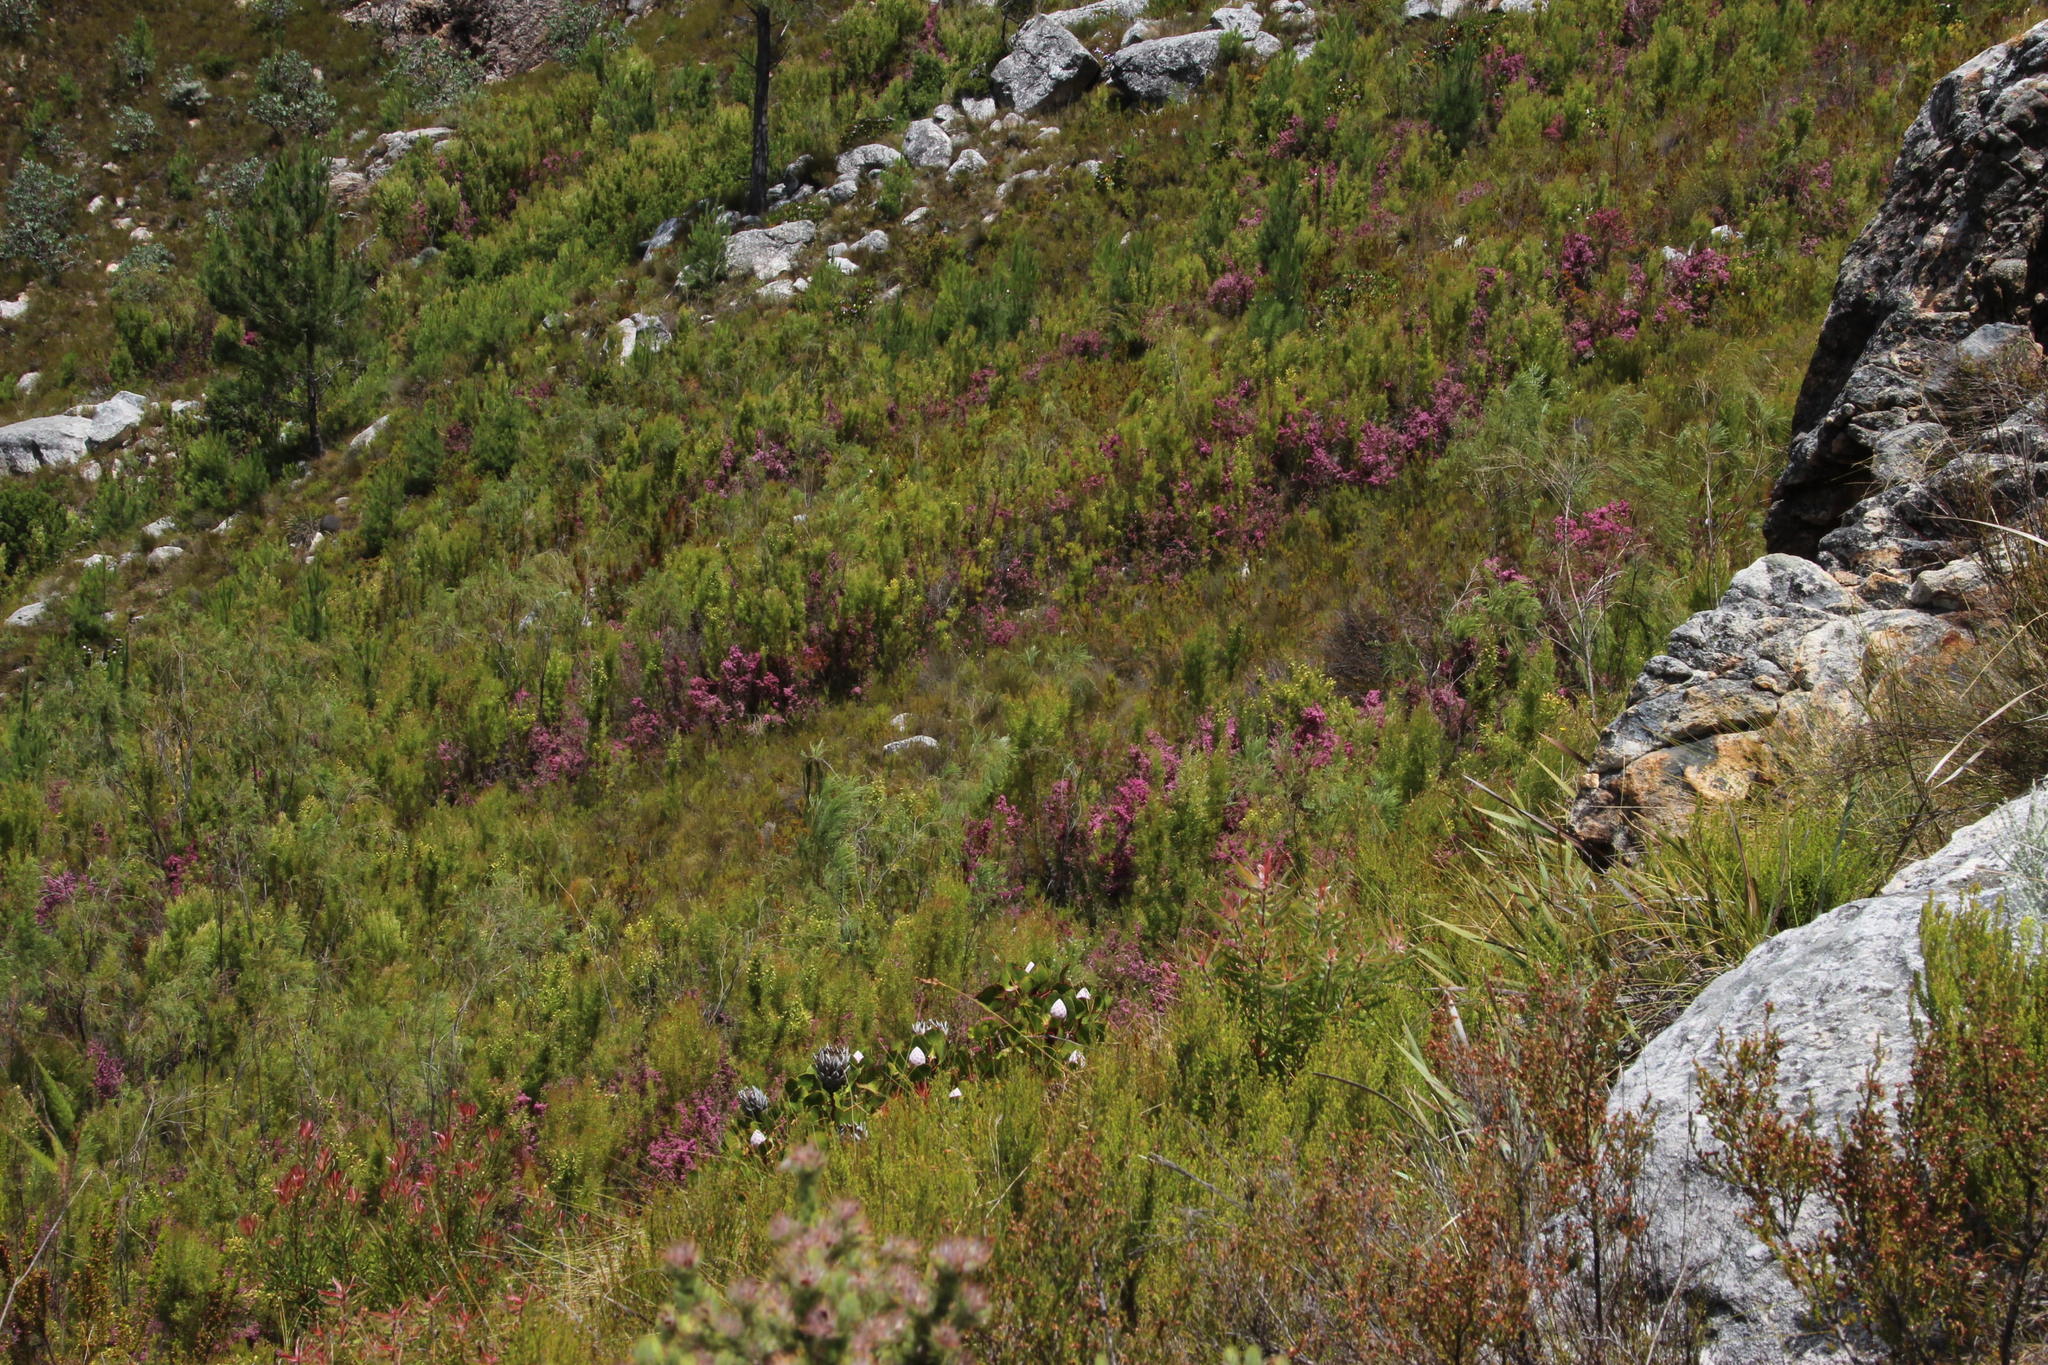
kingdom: Plantae
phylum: Tracheophyta
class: Pinopsida
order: Pinales
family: Pinaceae
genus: Pinus
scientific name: Pinus pinaster
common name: Maritime pine
